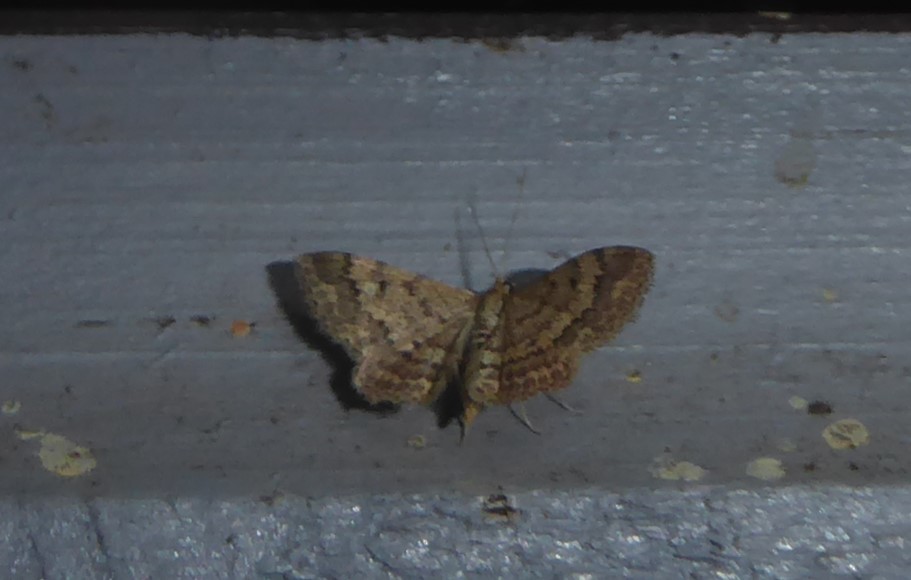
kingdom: Animalia
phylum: Arthropoda
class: Insecta
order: Lepidoptera
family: Geometridae
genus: Scopula
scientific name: Scopula rubraria
